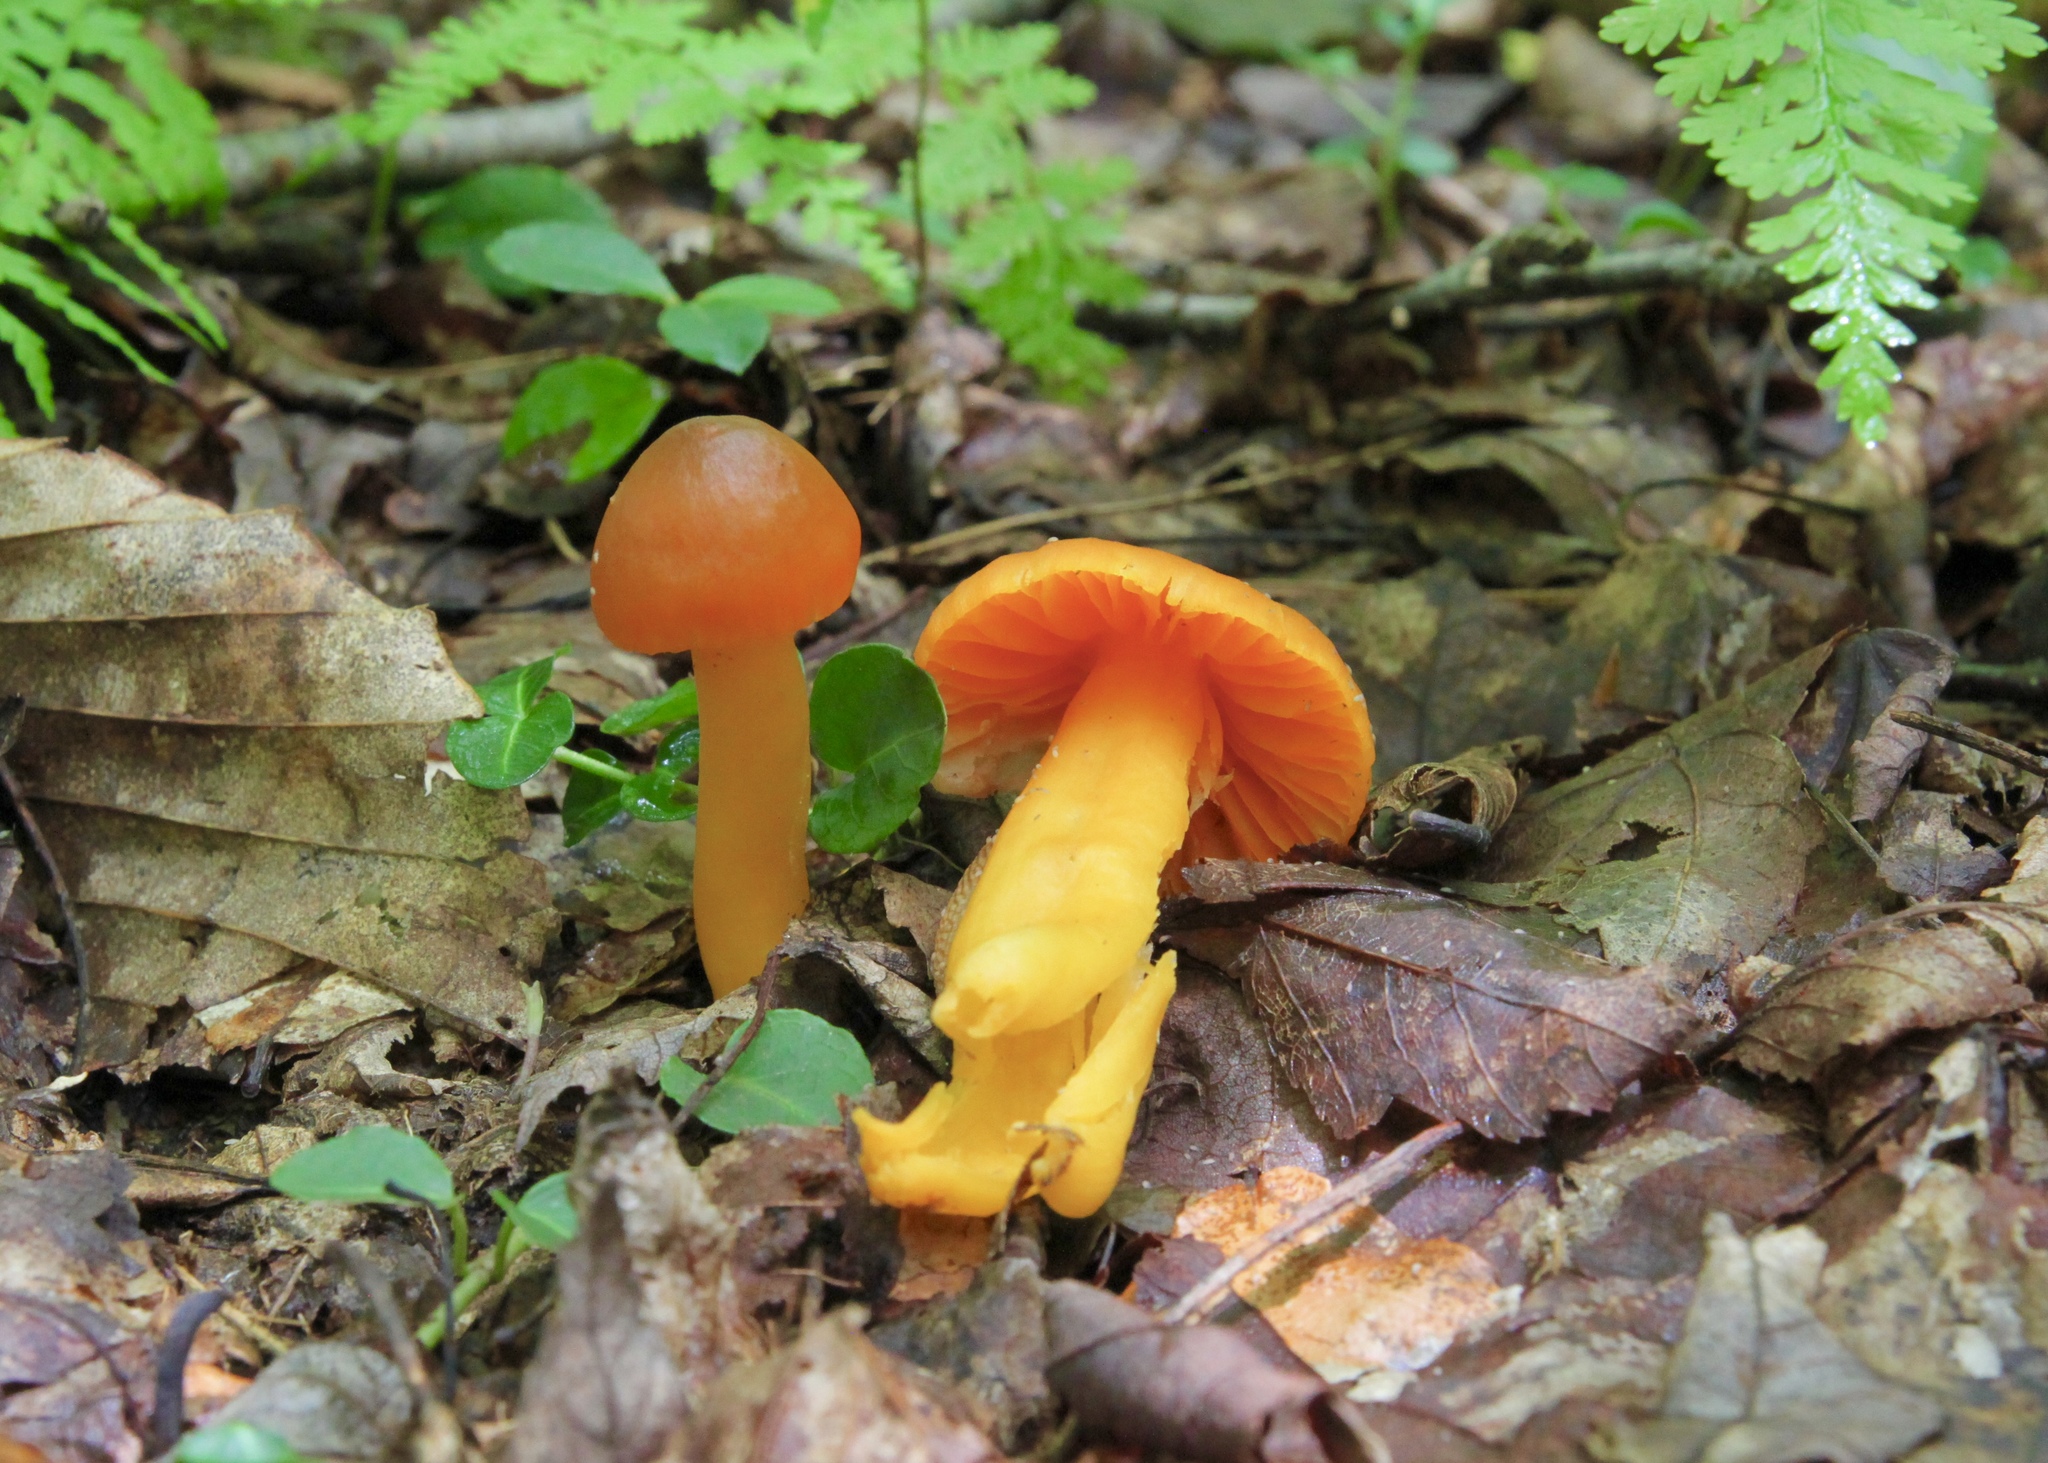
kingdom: Fungi
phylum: Basidiomycota
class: Agaricomycetes
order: Agaricales
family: Hygrophoraceae
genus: Humidicutis
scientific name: Humidicutis marginata
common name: Orange gilled waxcap
